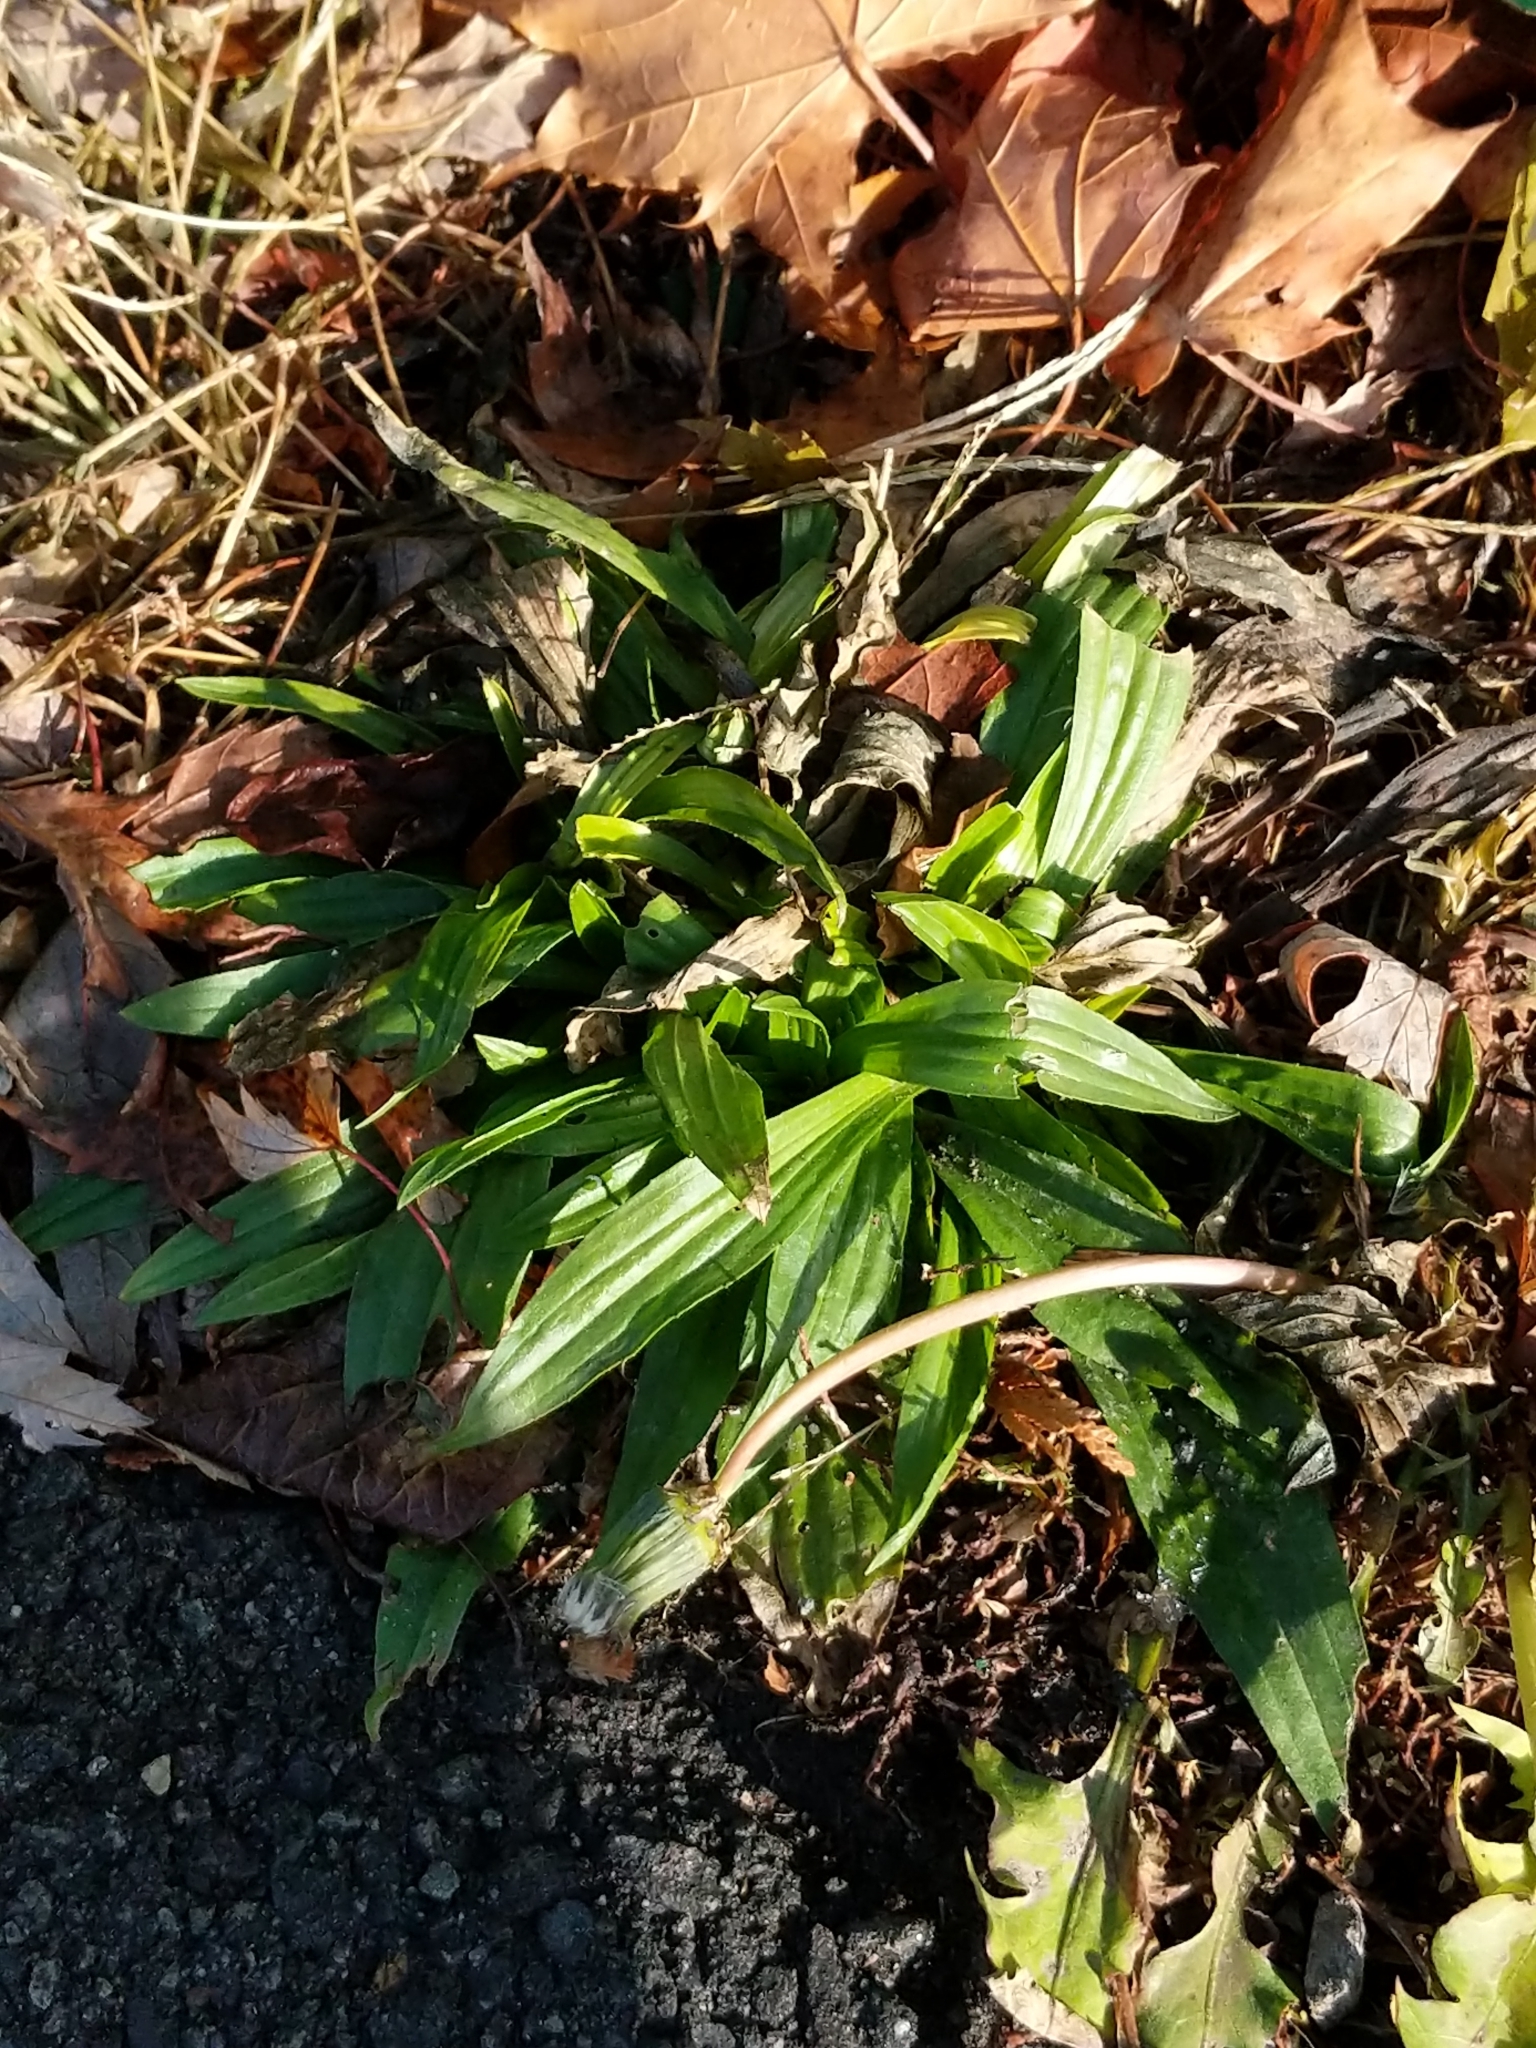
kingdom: Plantae
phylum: Tracheophyta
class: Magnoliopsida
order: Lamiales
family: Plantaginaceae
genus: Plantago
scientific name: Plantago lanceolata
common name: Ribwort plantain
